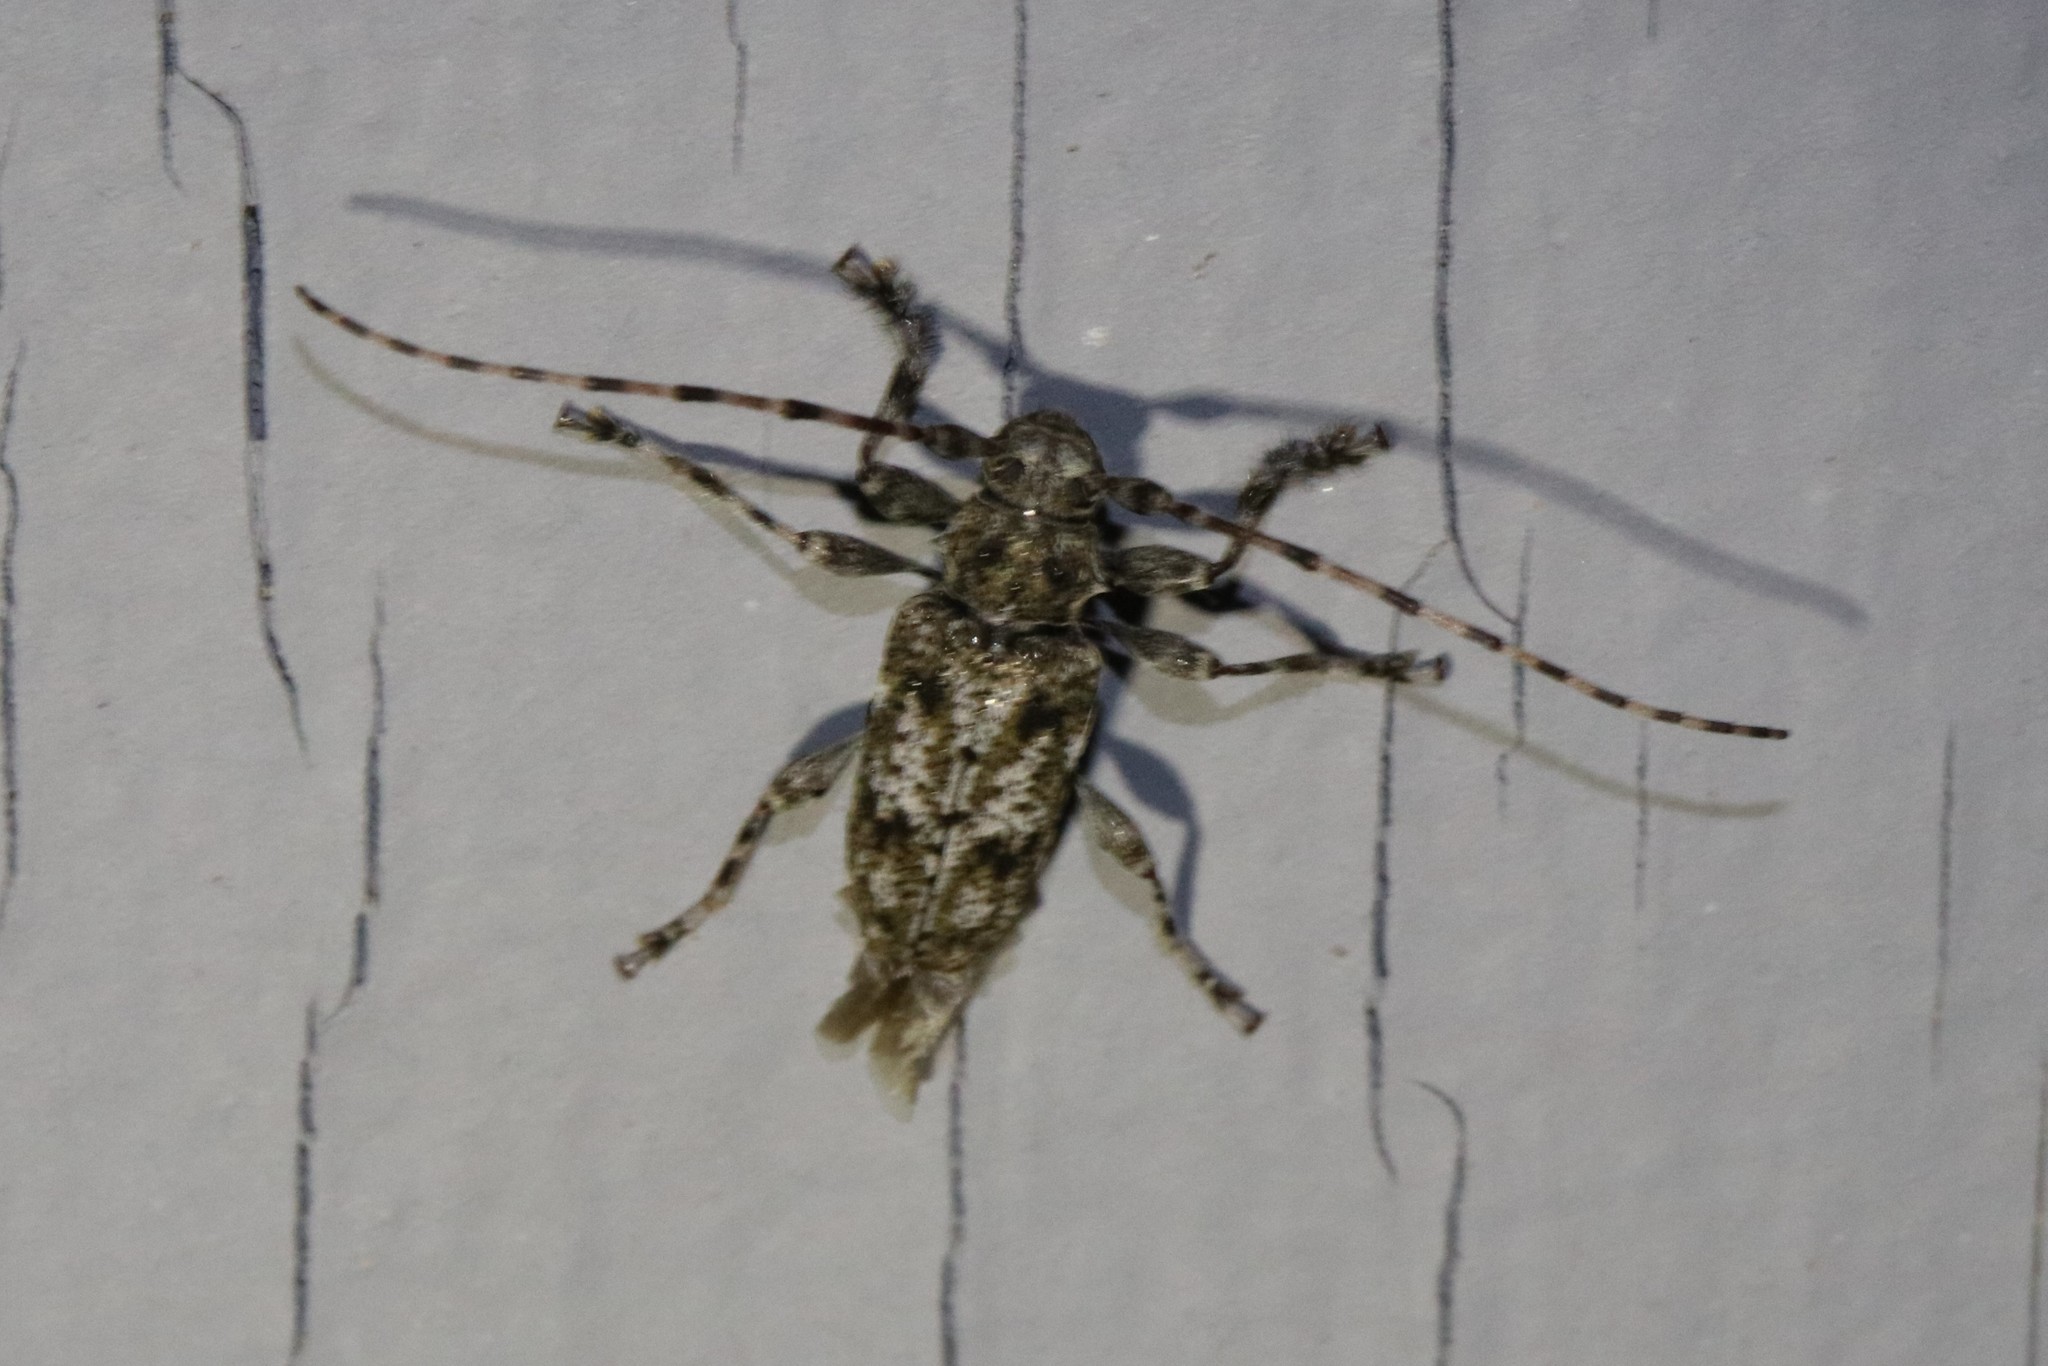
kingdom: Animalia
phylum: Arthropoda
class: Insecta
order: Coleoptera
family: Cerambycidae
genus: Aegomorphus
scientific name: Aegomorphus modestus
